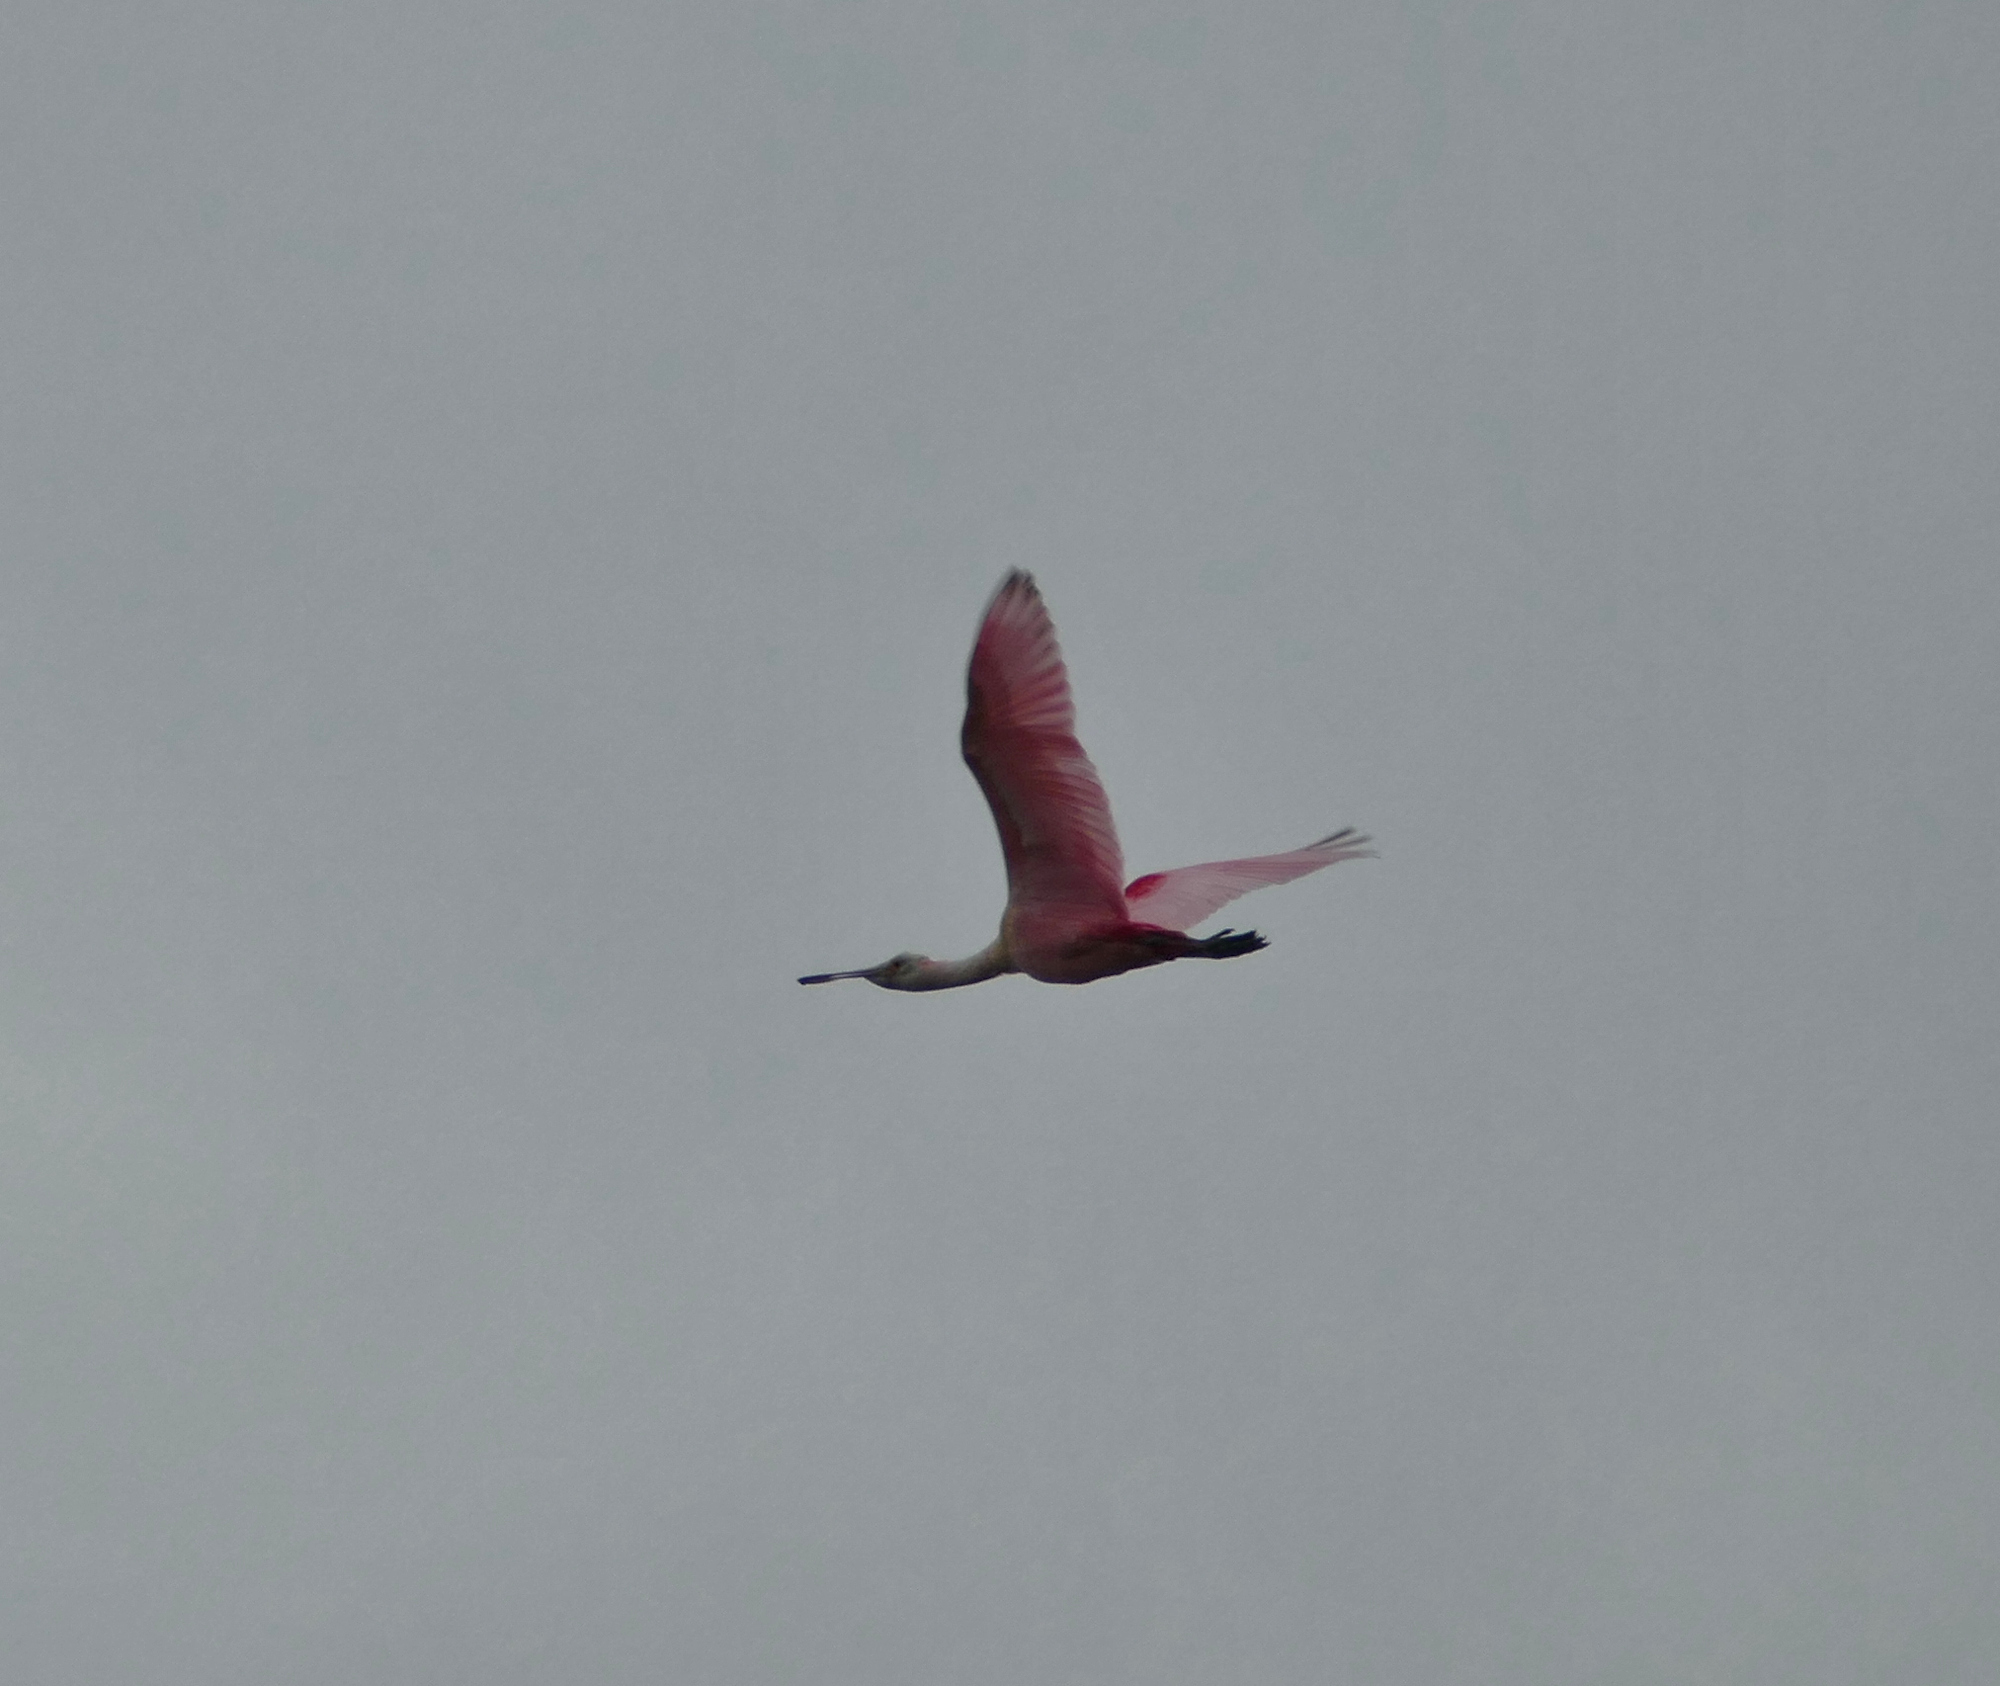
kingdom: Animalia
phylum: Chordata
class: Aves
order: Pelecaniformes
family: Threskiornithidae
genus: Platalea
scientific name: Platalea ajaja
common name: Roseate spoonbill
